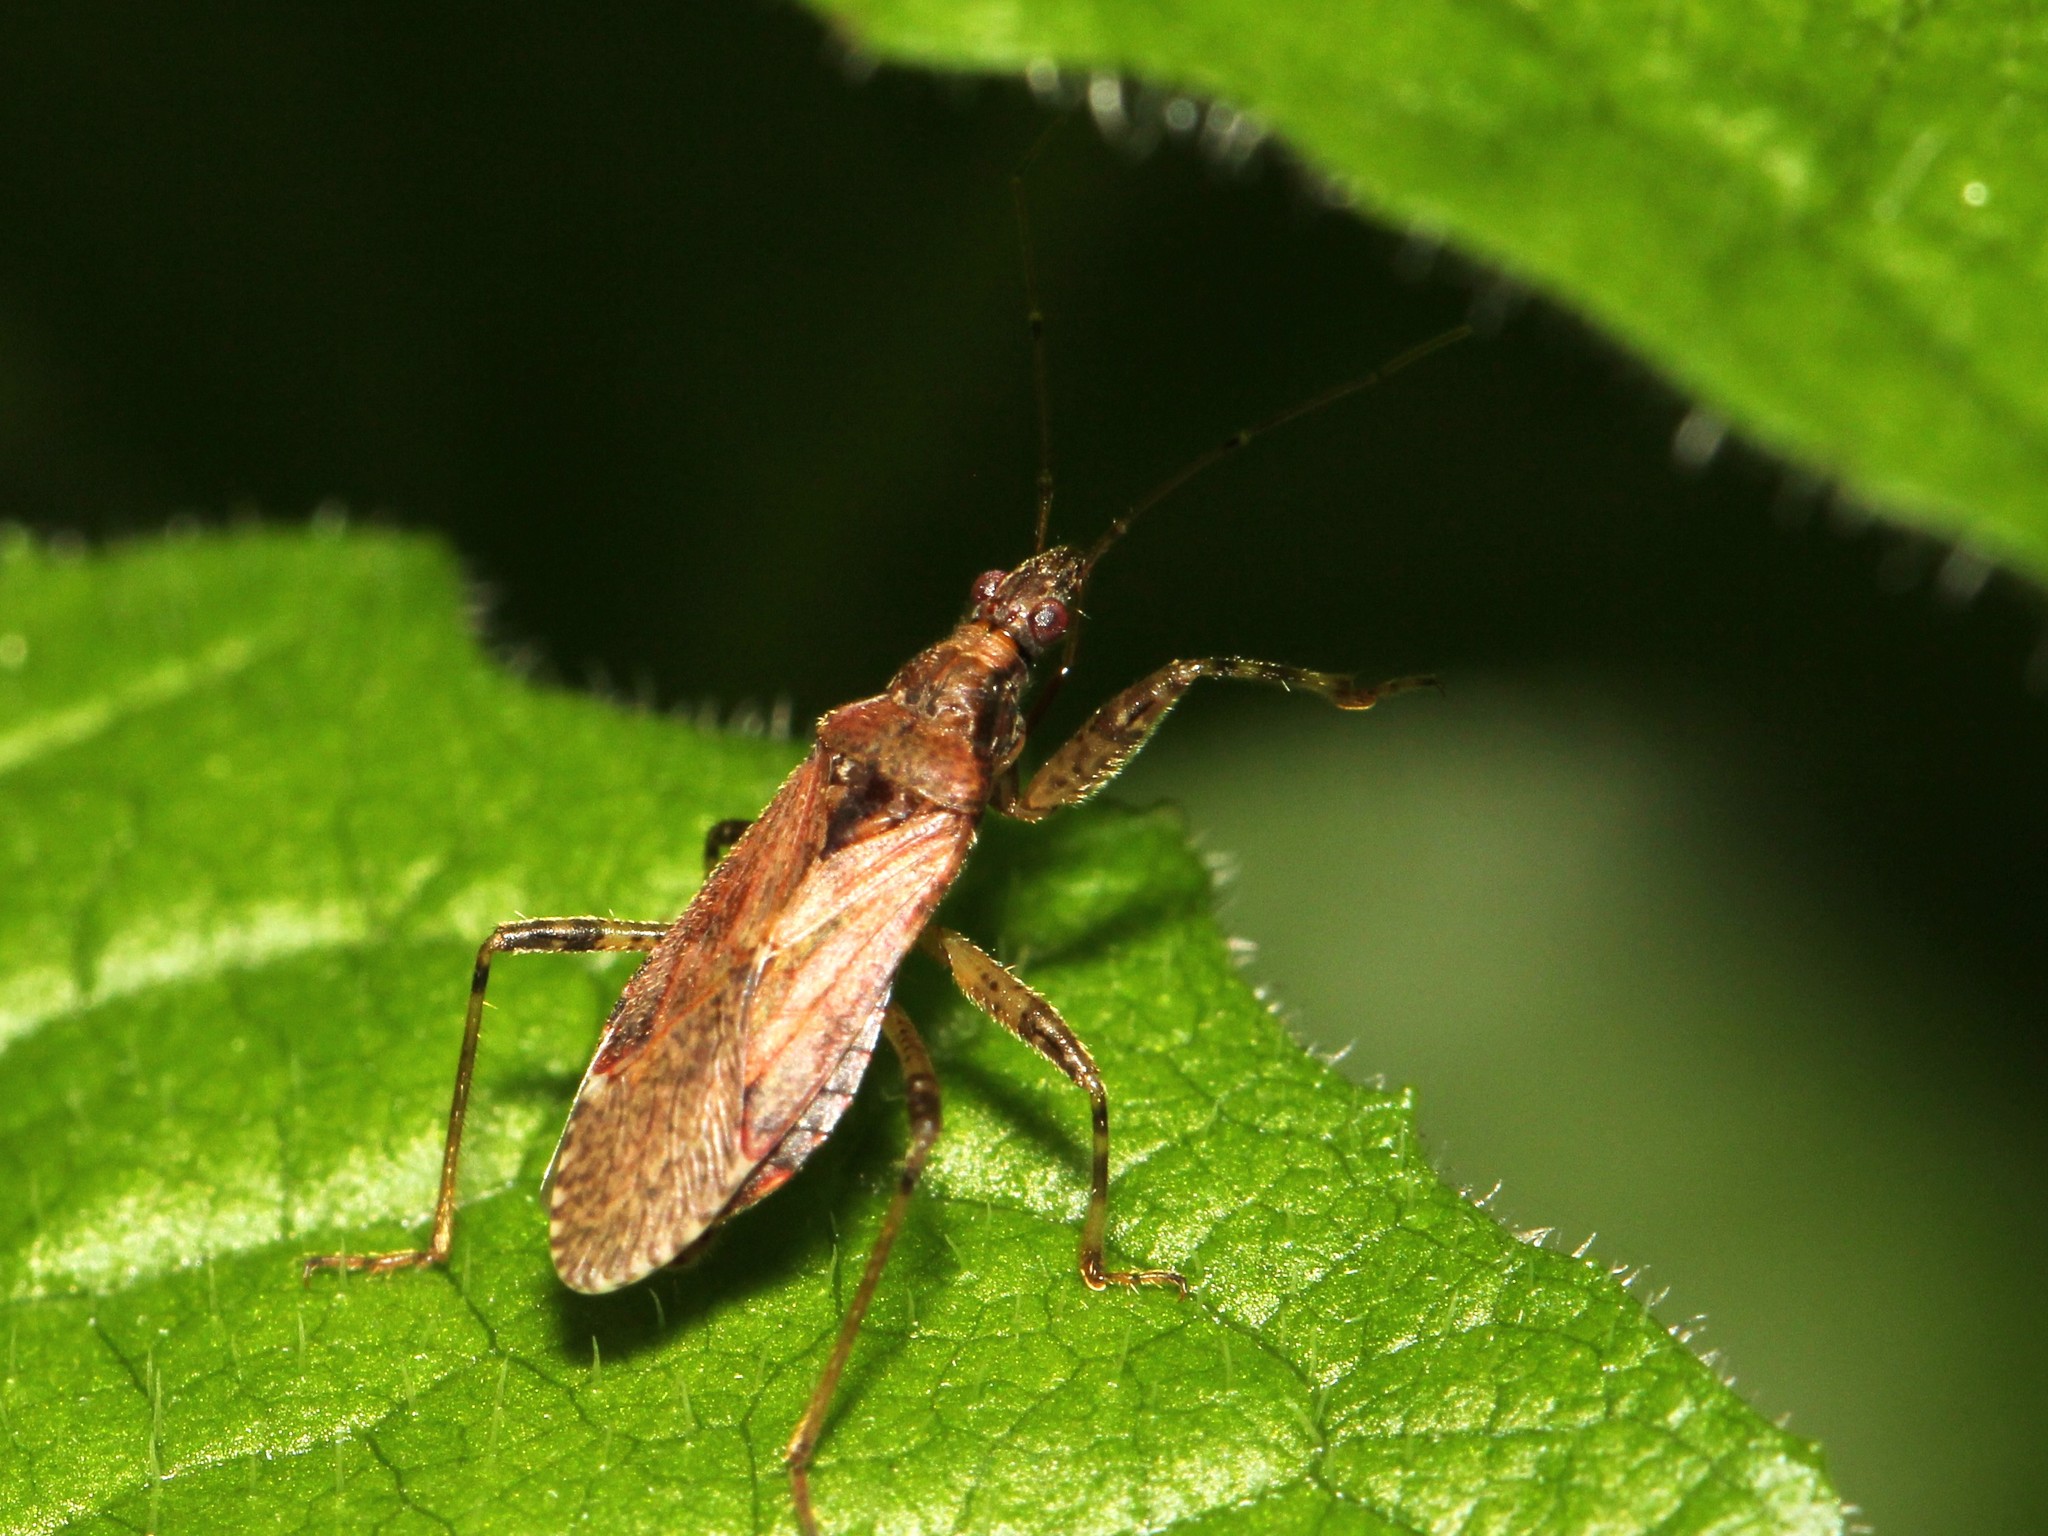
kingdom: Animalia
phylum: Arthropoda
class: Insecta
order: Hemiptera
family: Nabidae
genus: Himacerus
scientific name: Himacerus mirmicoides
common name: Ant damsel bug
